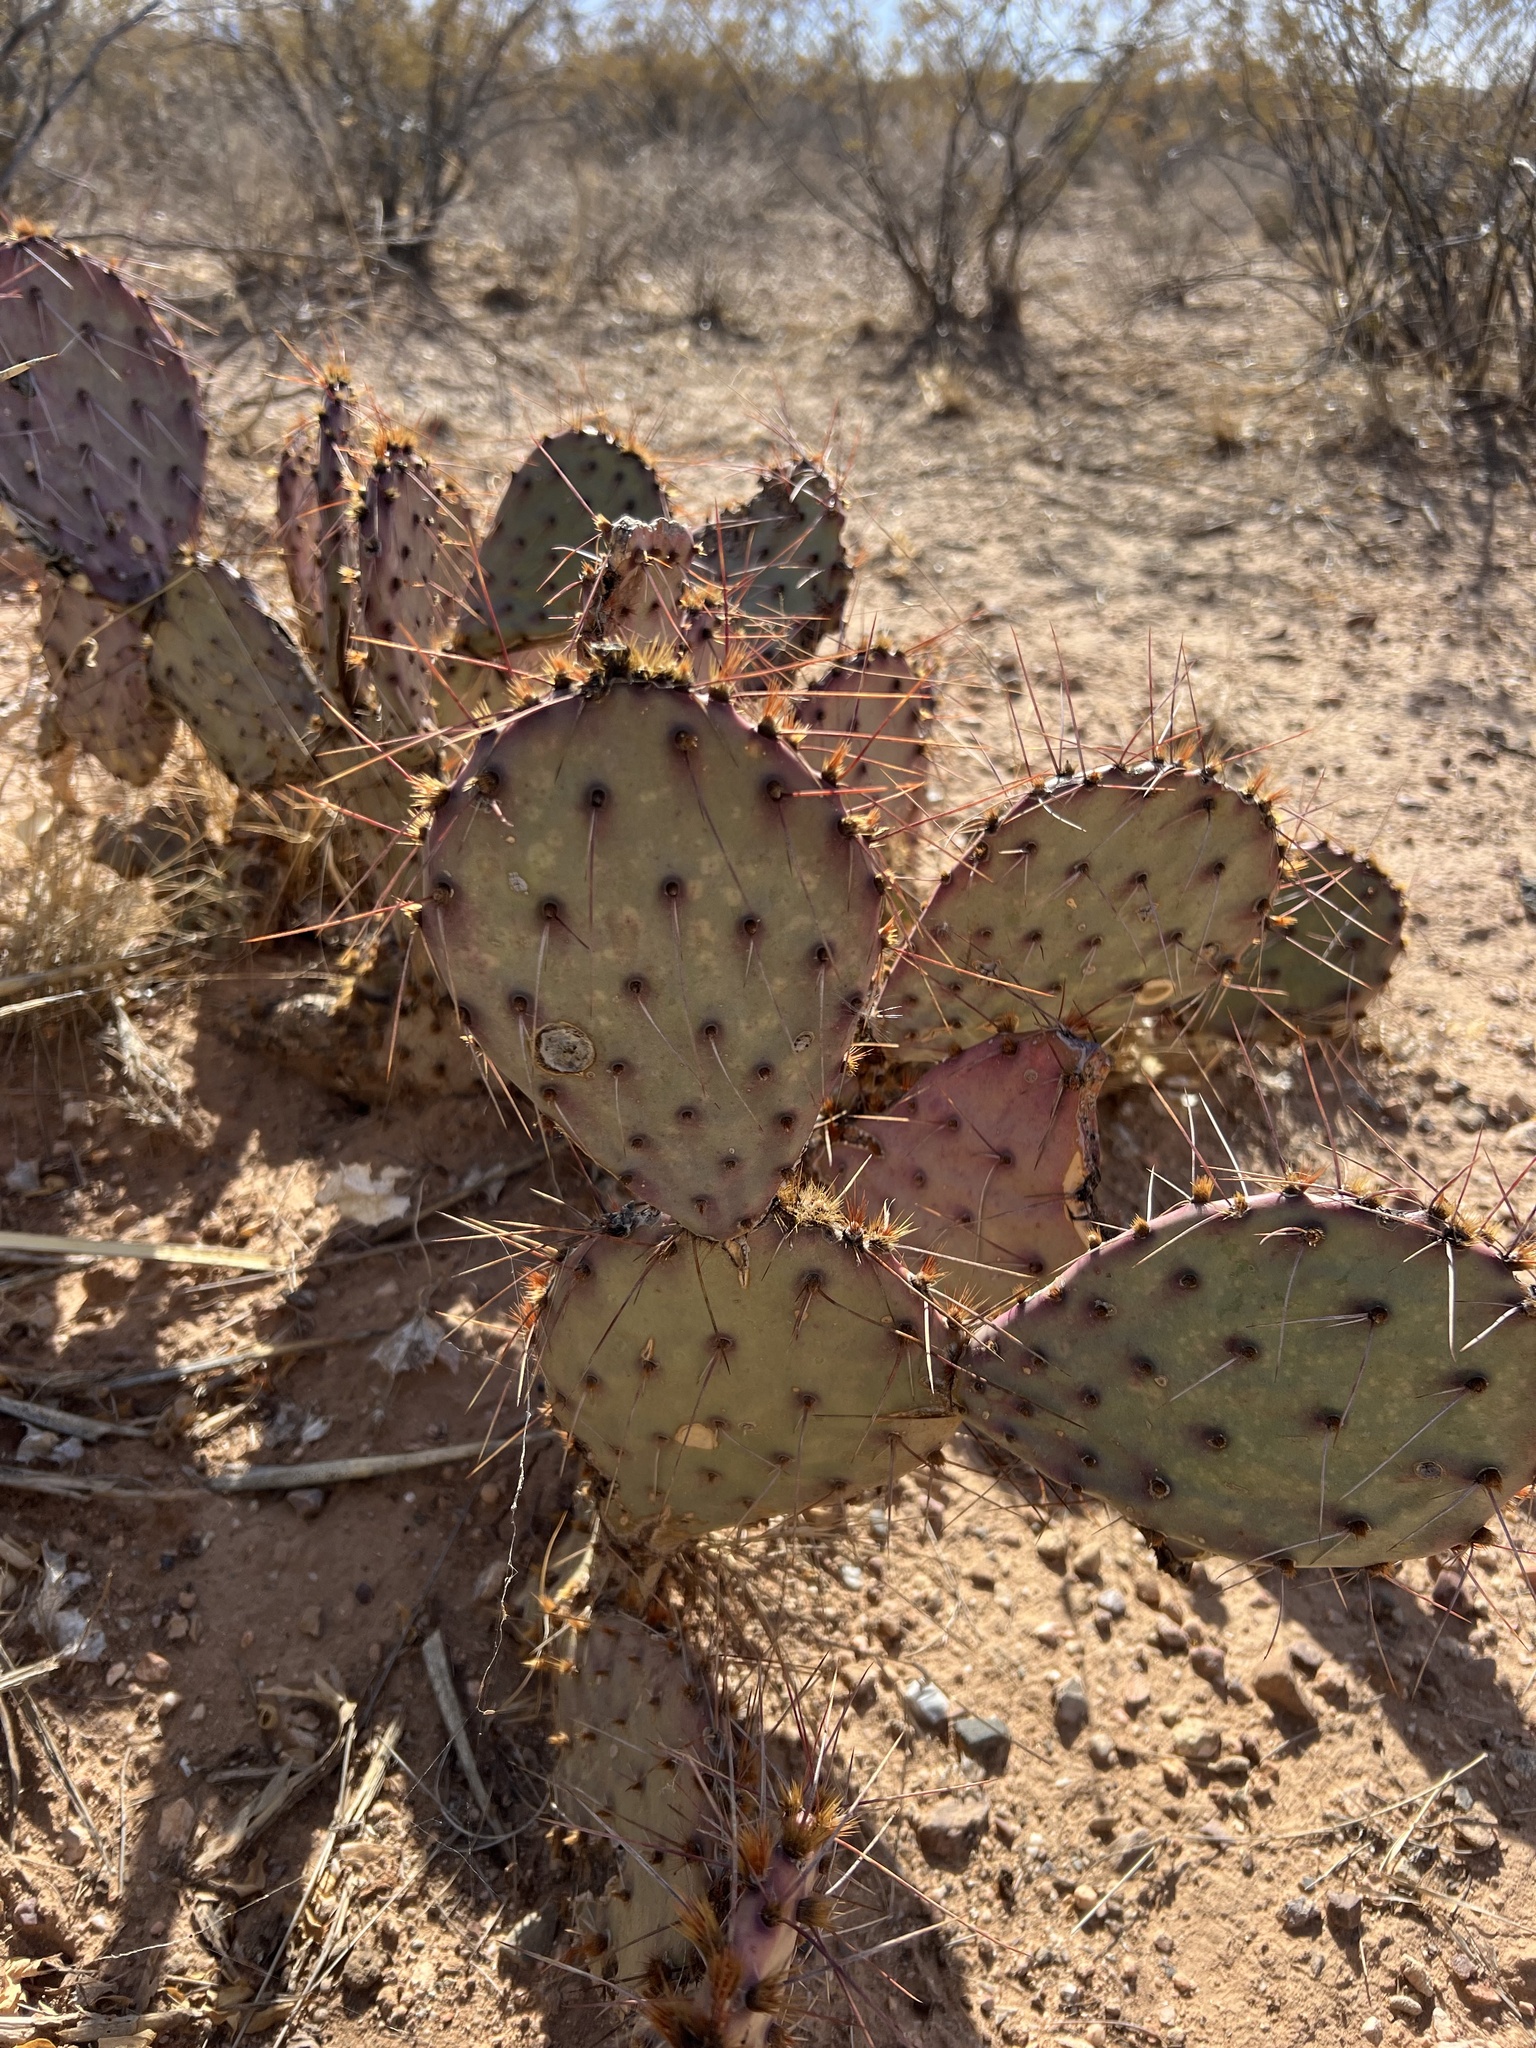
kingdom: Plantae
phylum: Tracheophyta
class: Magnoliopsida
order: Caryophyllales
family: Cactaceae
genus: Opuntia
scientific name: Opuntia macrocentra
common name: Purple prickly-pear
